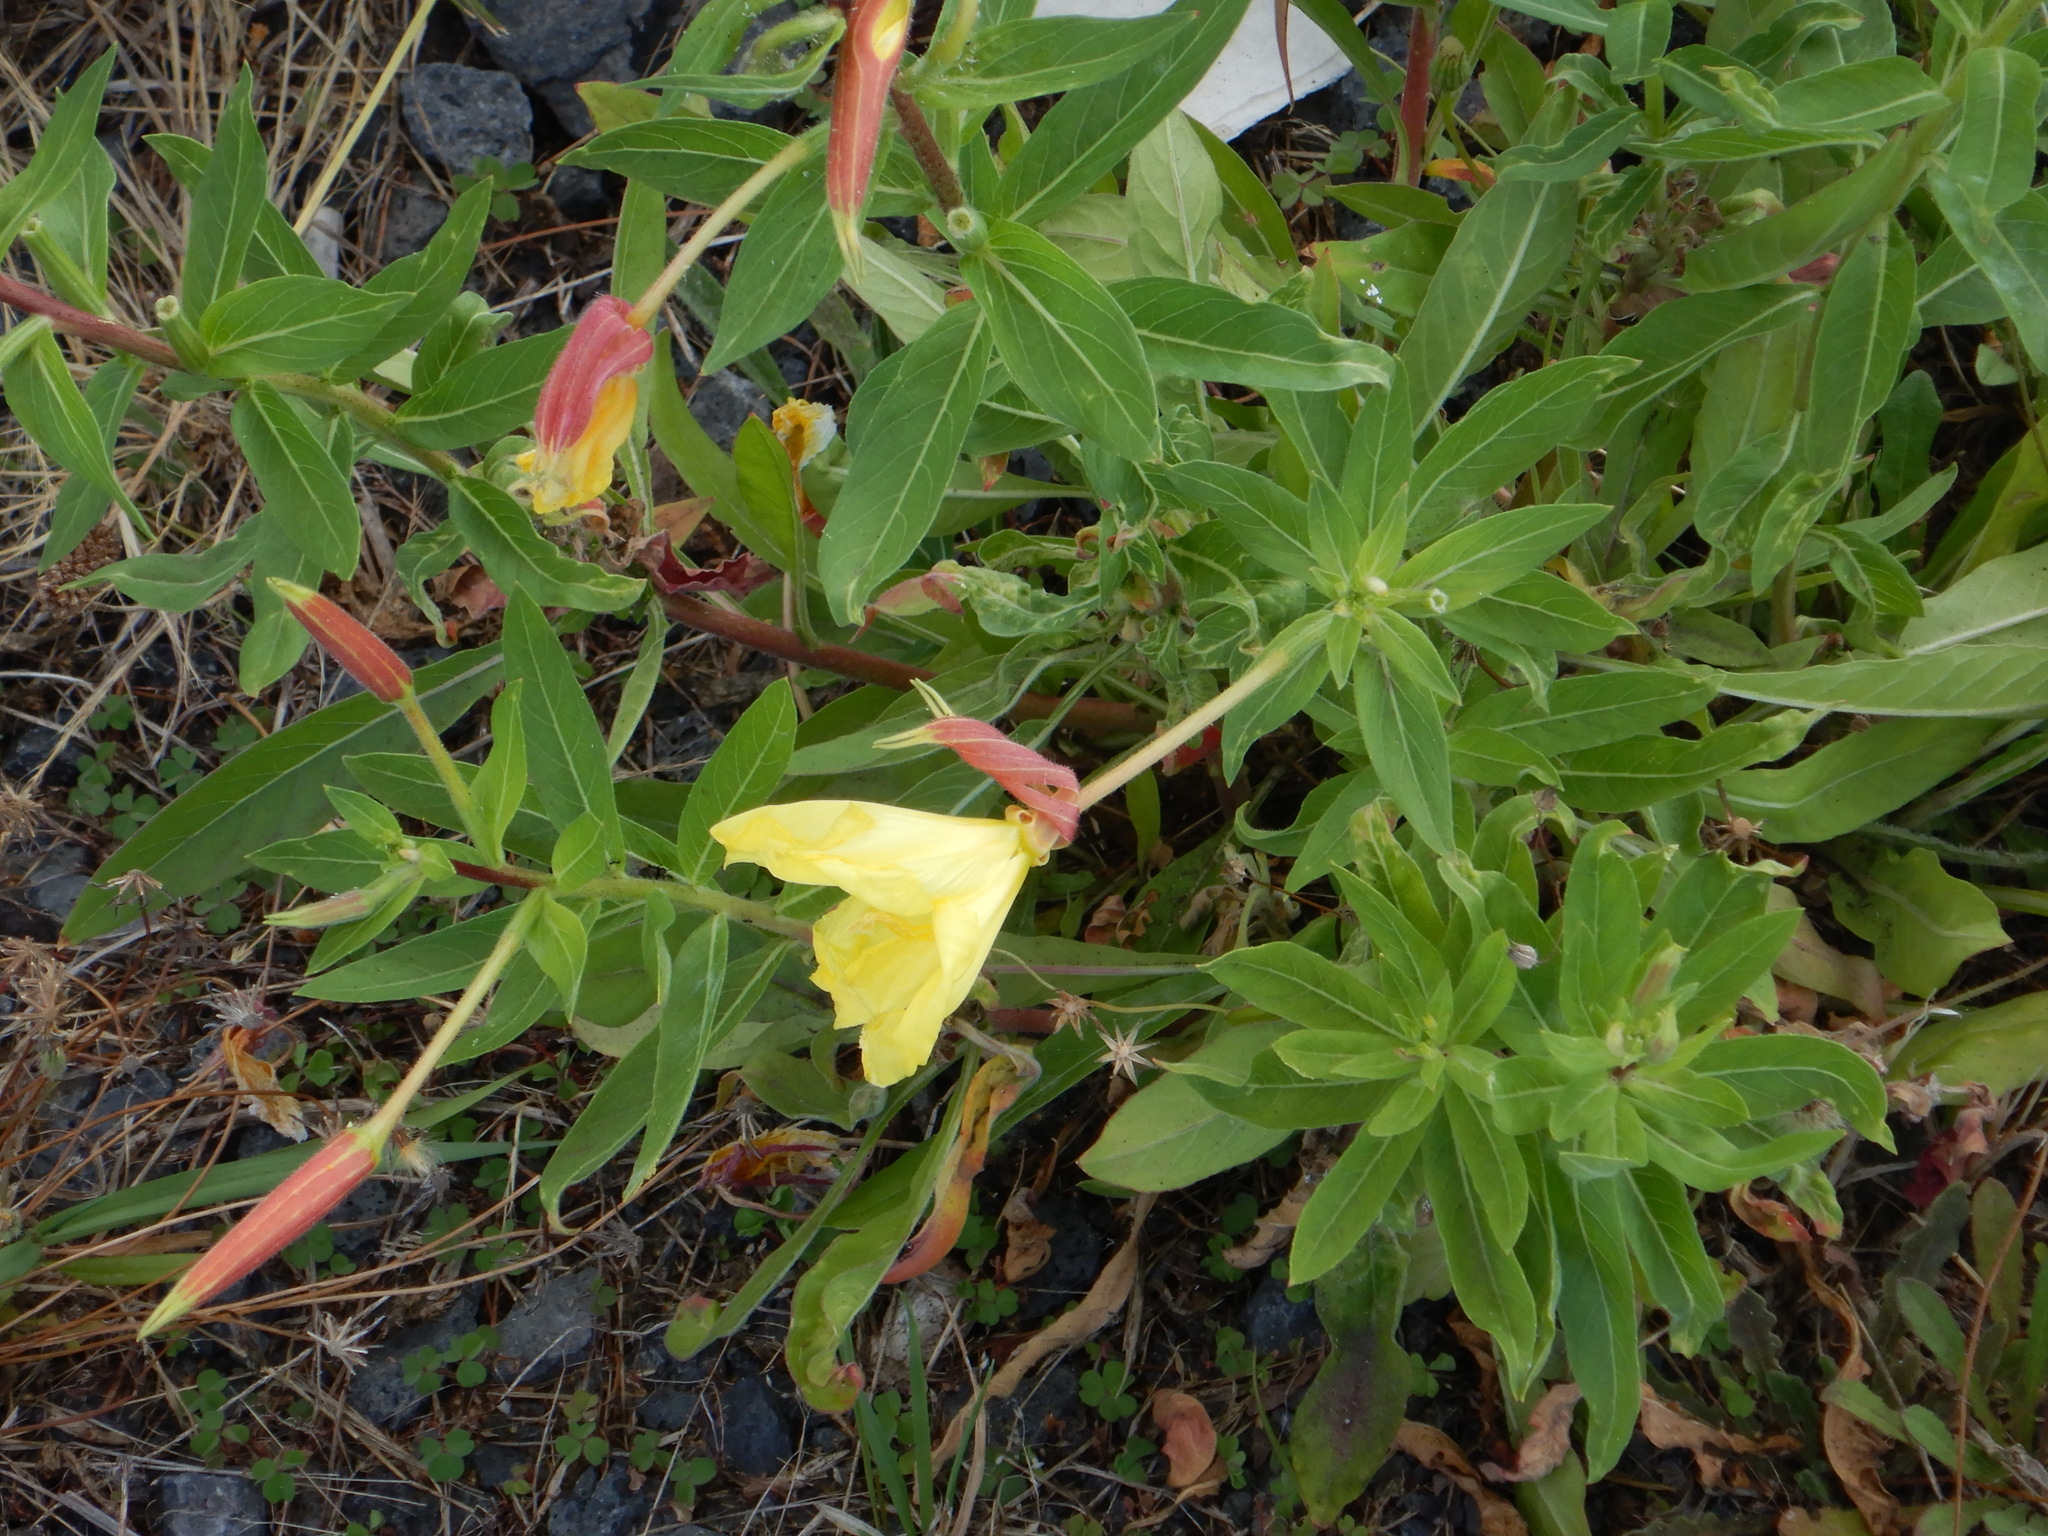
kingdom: Plantae
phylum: Tracheophyta
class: Magnoliopsida
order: Myrtales
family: Onagraceae
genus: Oenothera
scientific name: Oenothera glazioviana
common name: Large-flowered evening-primrose
